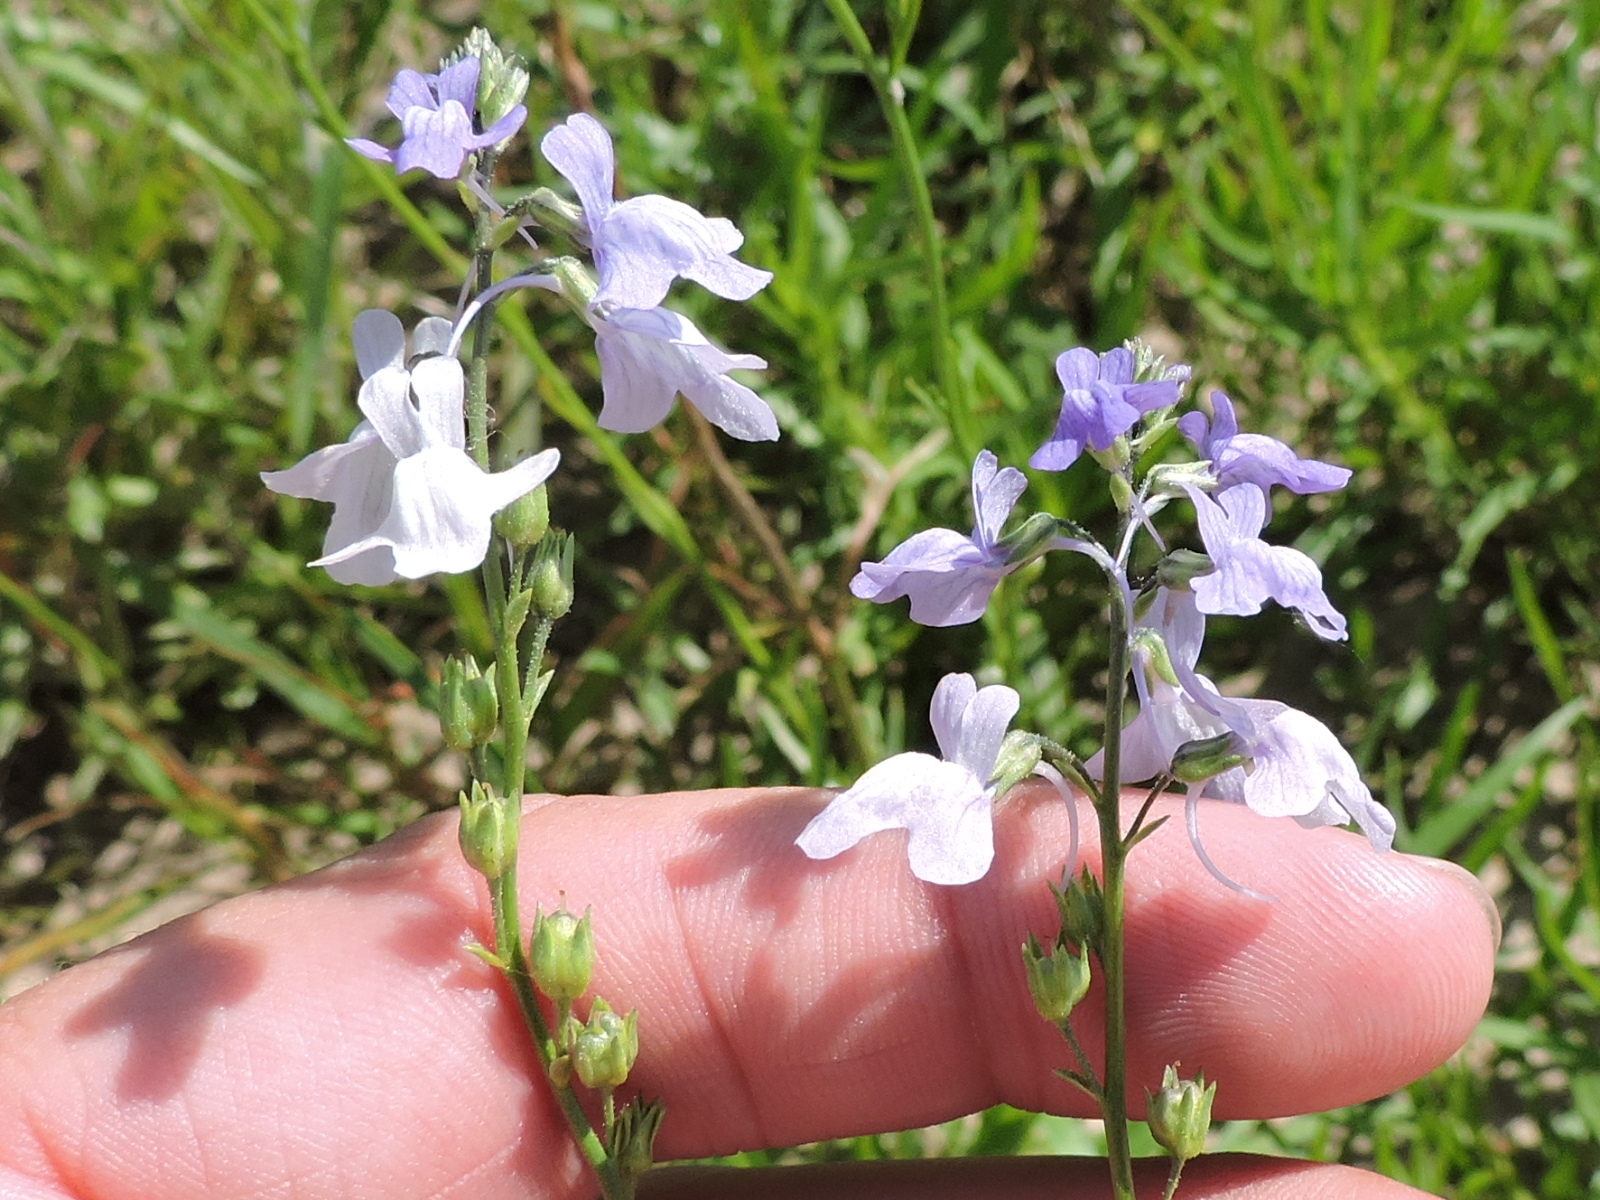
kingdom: Plantae
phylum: Tracheophyta
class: Magnoliopsida
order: Lamiales
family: Plantaginaceae
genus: Nuttallanthus
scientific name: Nuttallanthus texanus
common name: Texas toadflax
